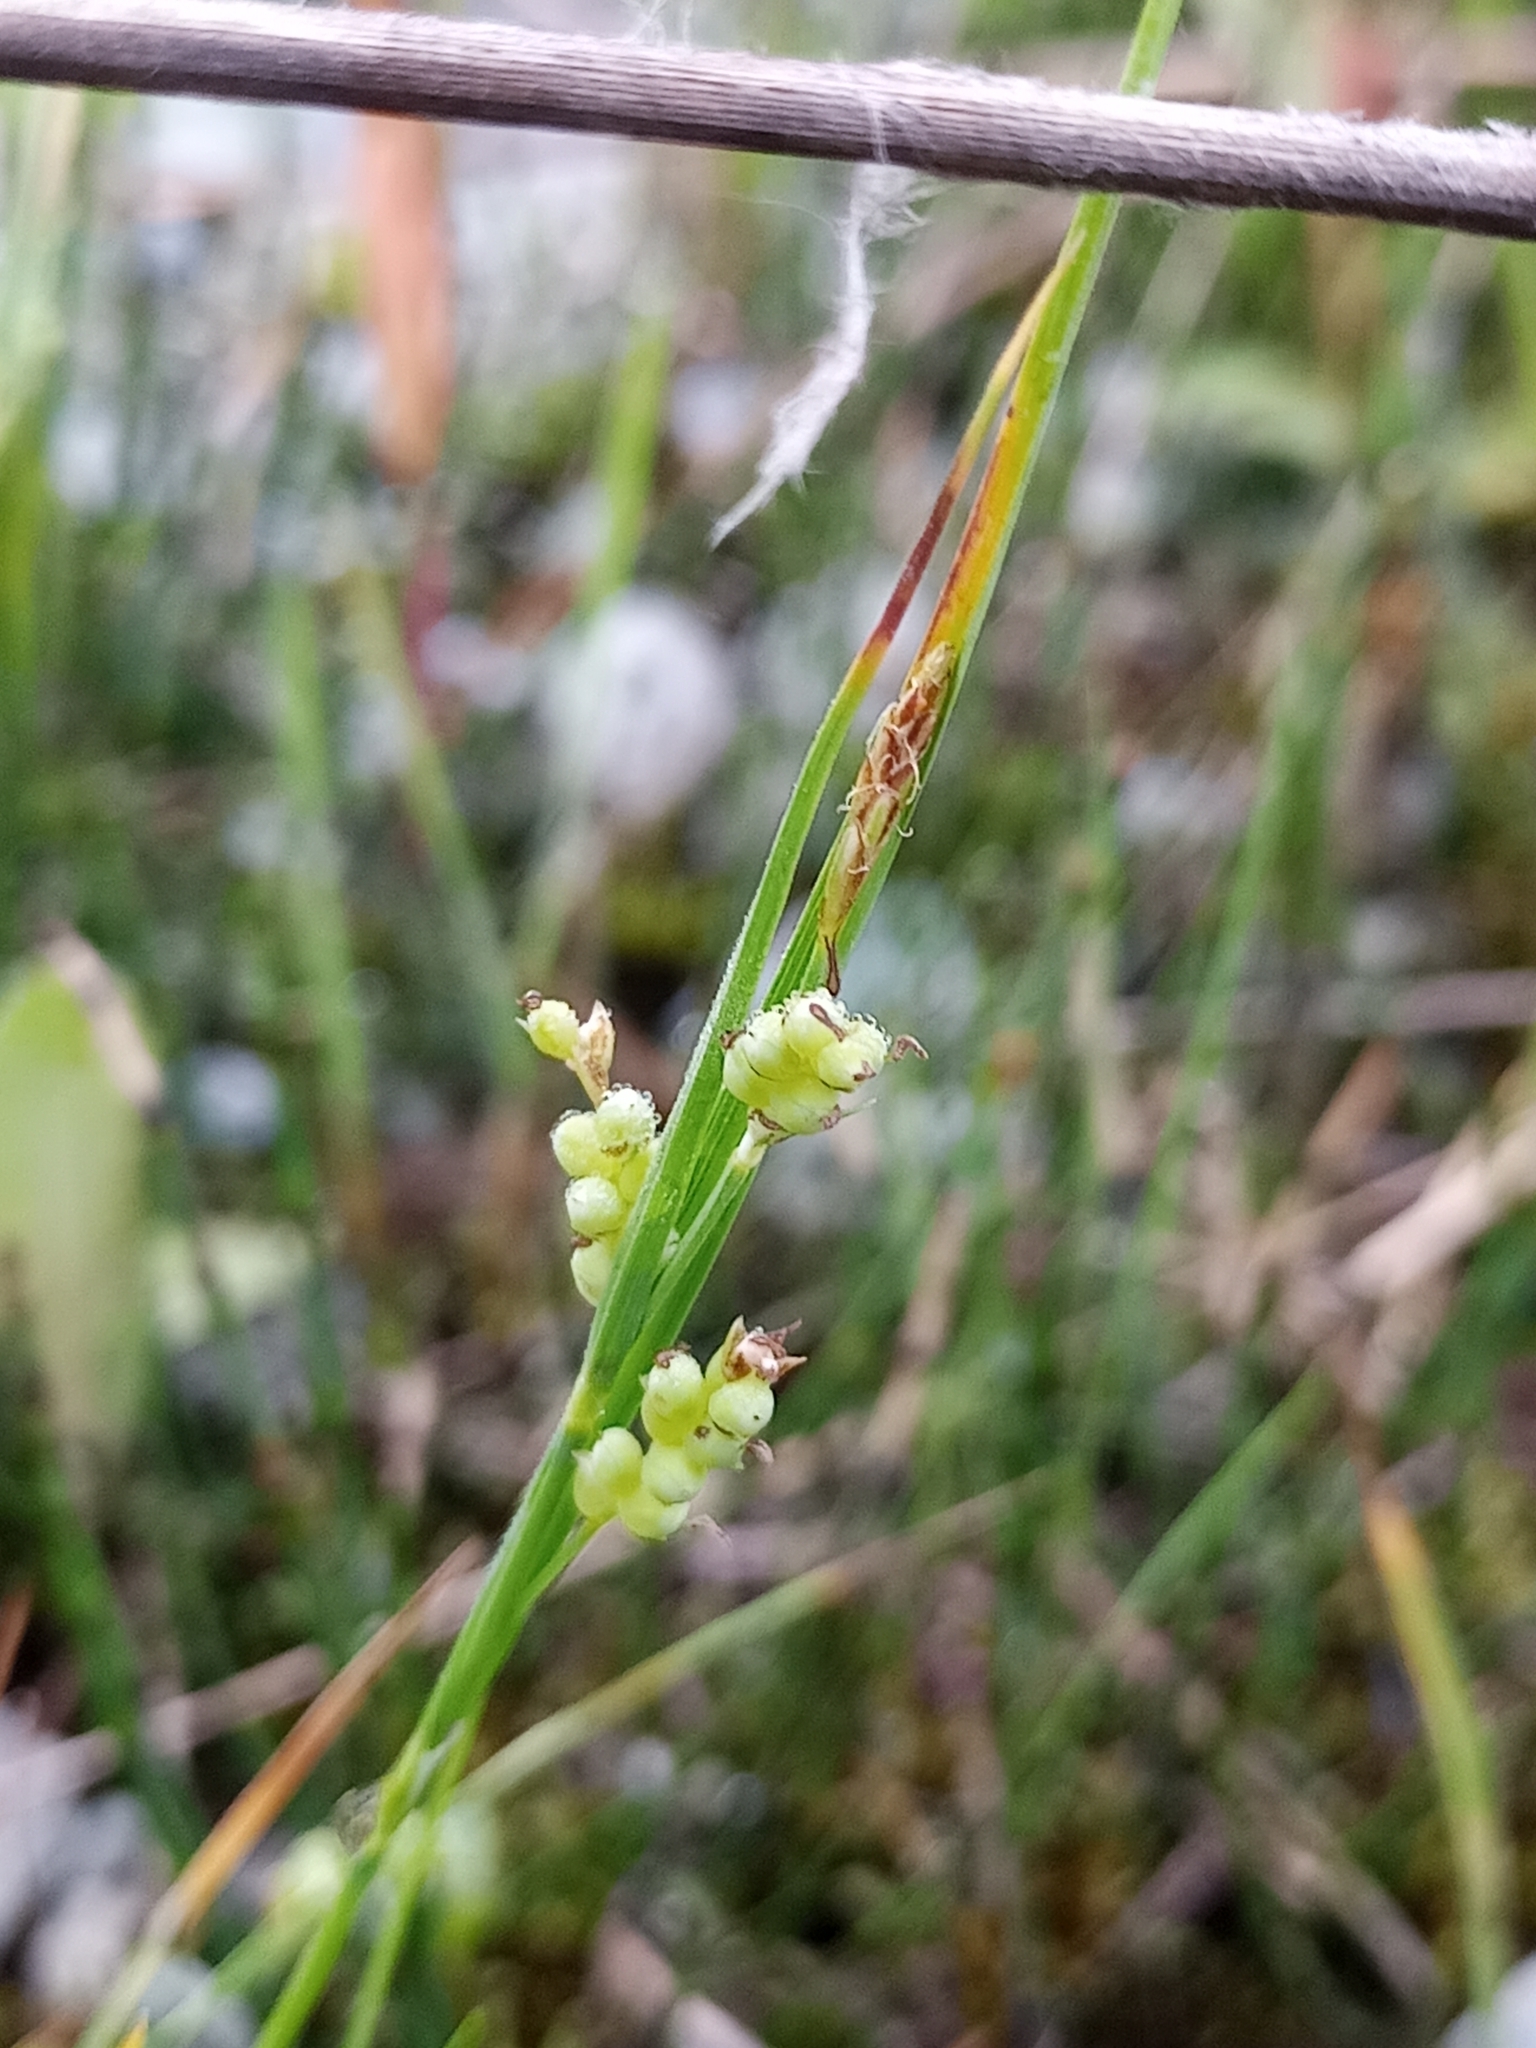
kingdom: Plantae
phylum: Tracheophyta
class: Liliopsida
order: Poales
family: Cyperaceae
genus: Carex
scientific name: Carex aurea
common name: Golden sedge
